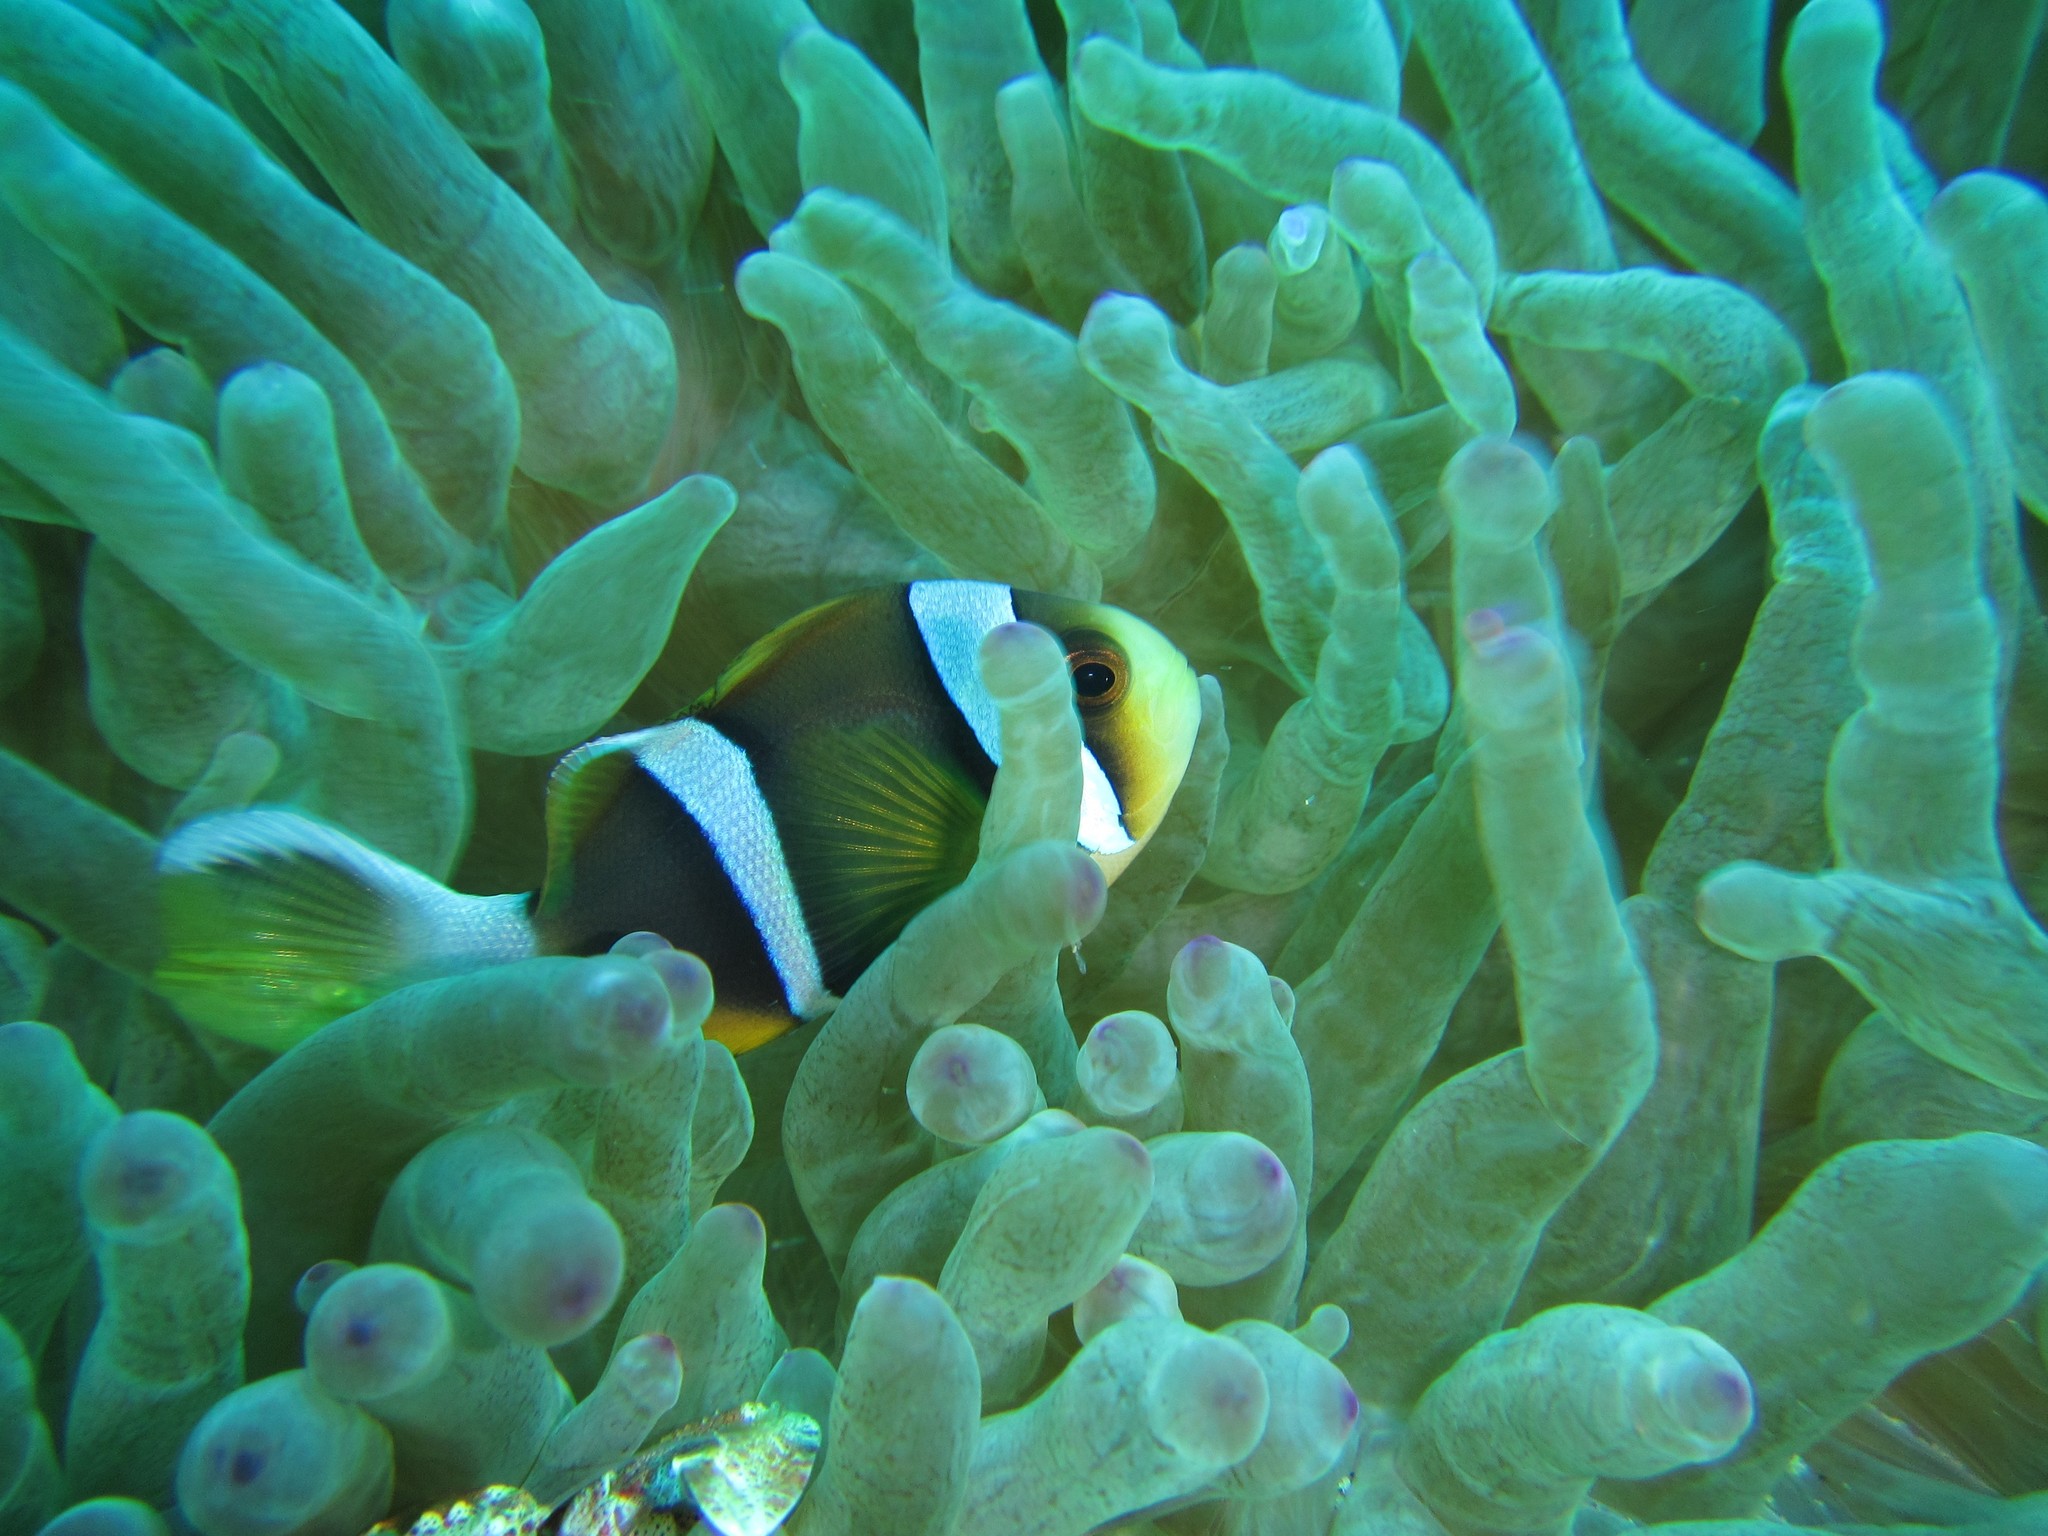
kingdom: Animalia
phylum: Cnidaria
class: Anthozoa
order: Actiniaria
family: Actiniidae
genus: Entacmaea
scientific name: Entacmaea quadricolor
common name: Bulb tentacle sea anemone
